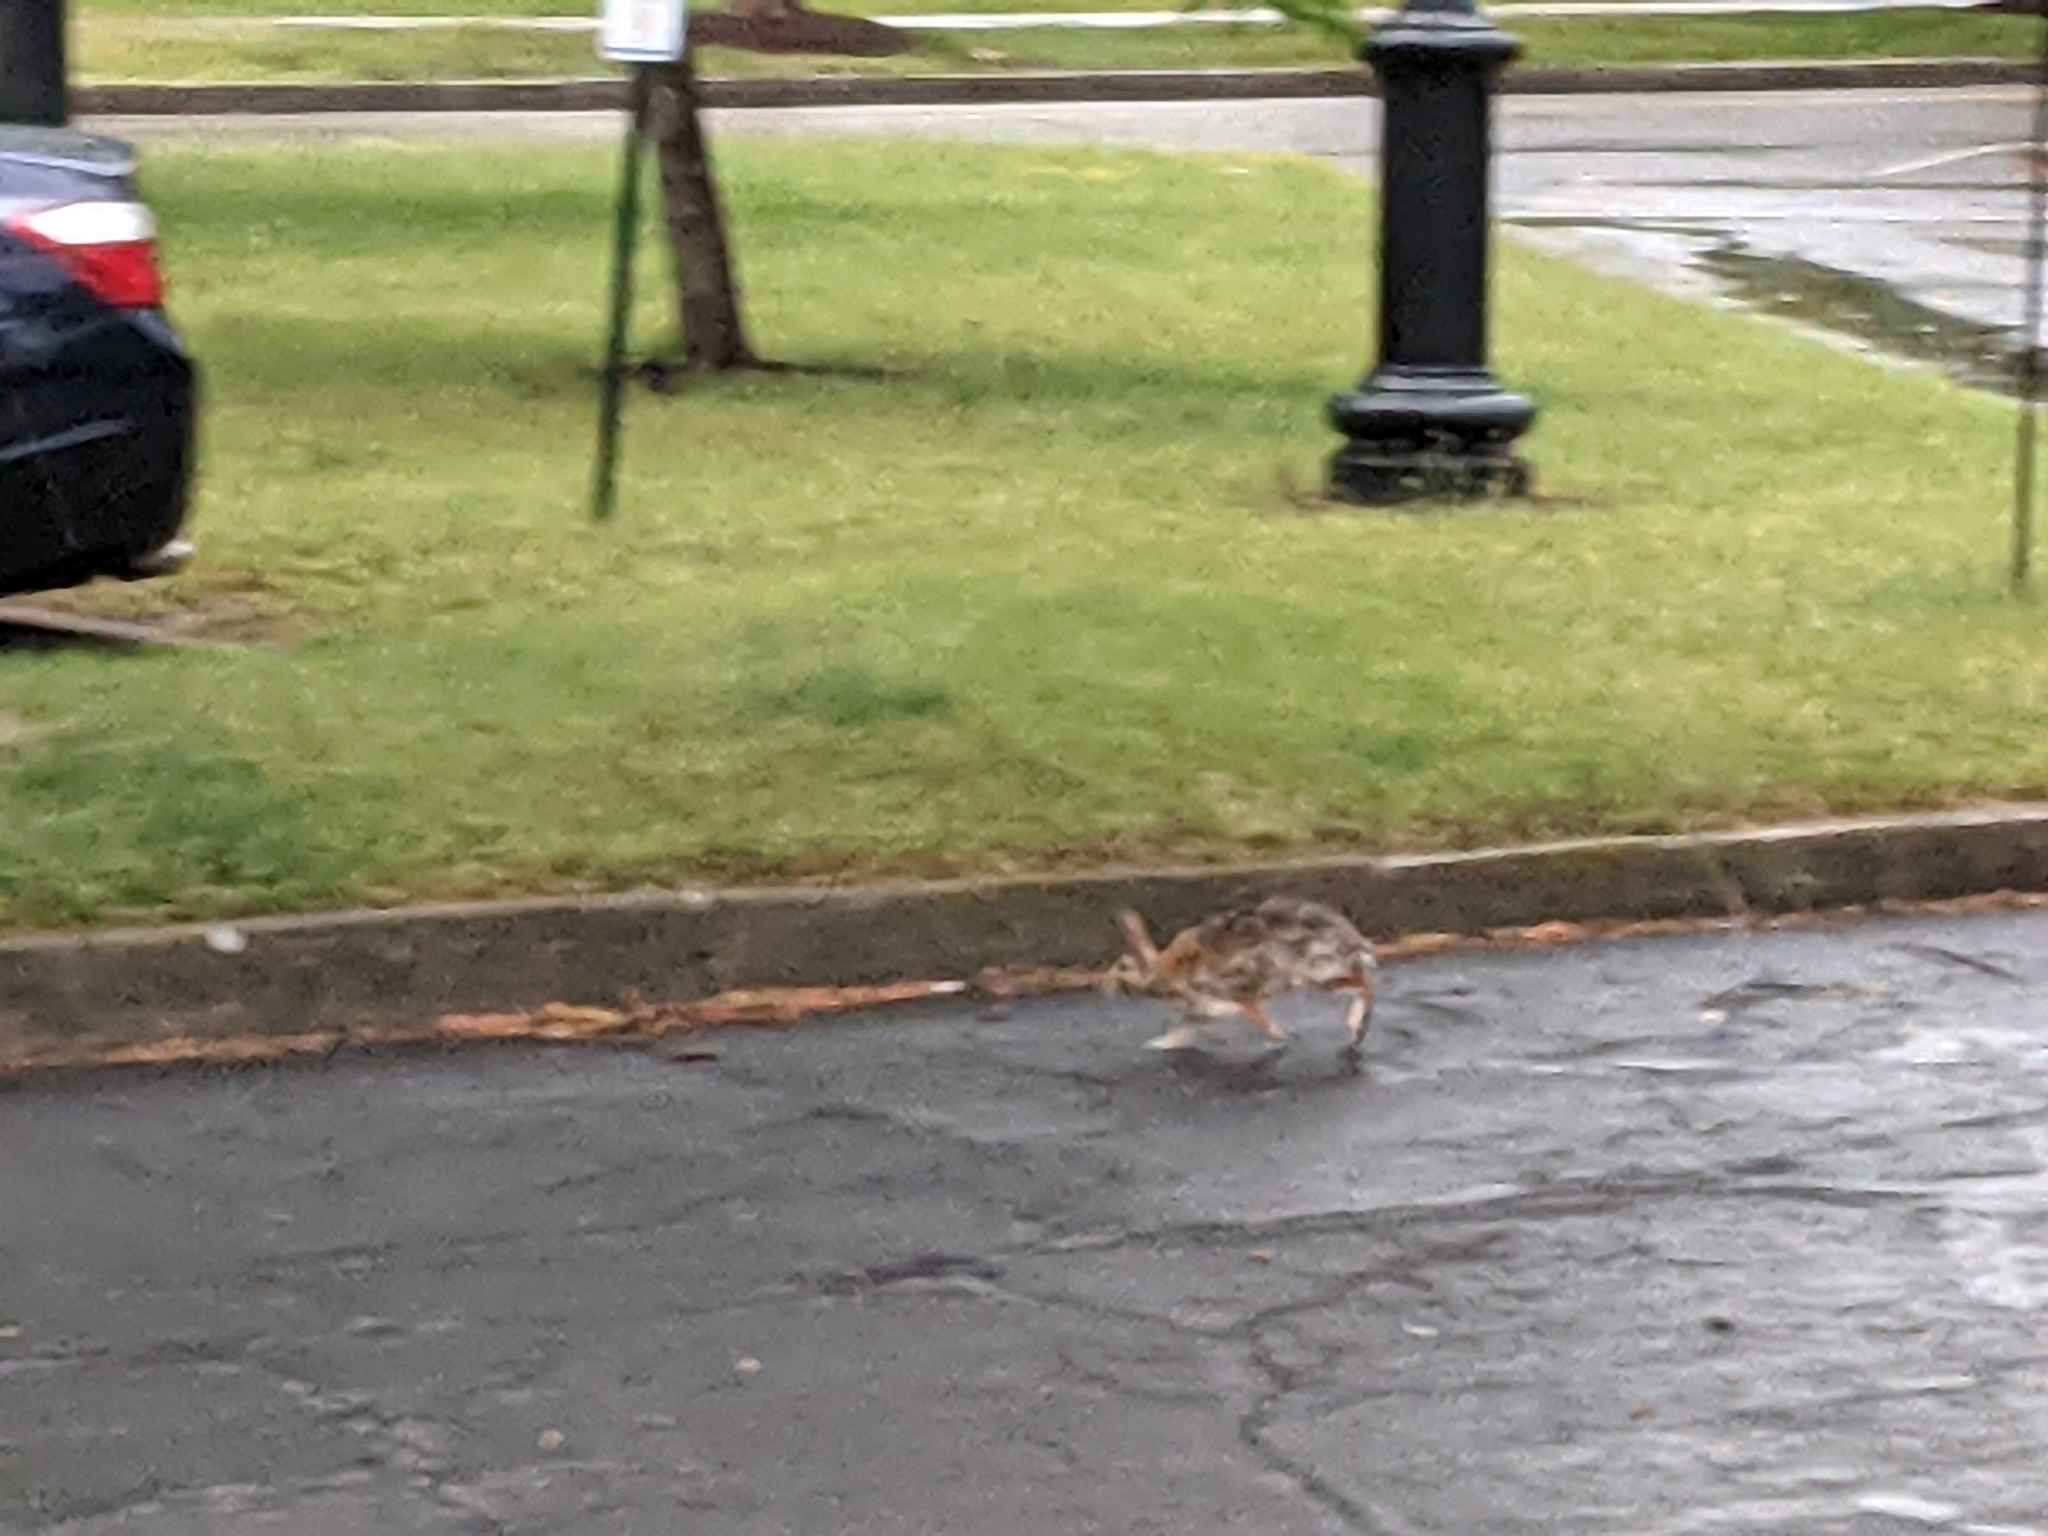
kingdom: Animalia
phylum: Chordata
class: Mammalia
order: Lagomorpha
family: Leporidae
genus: Sylvilagus
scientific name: Sylvilagus floridanus
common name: Eastern cottontail
